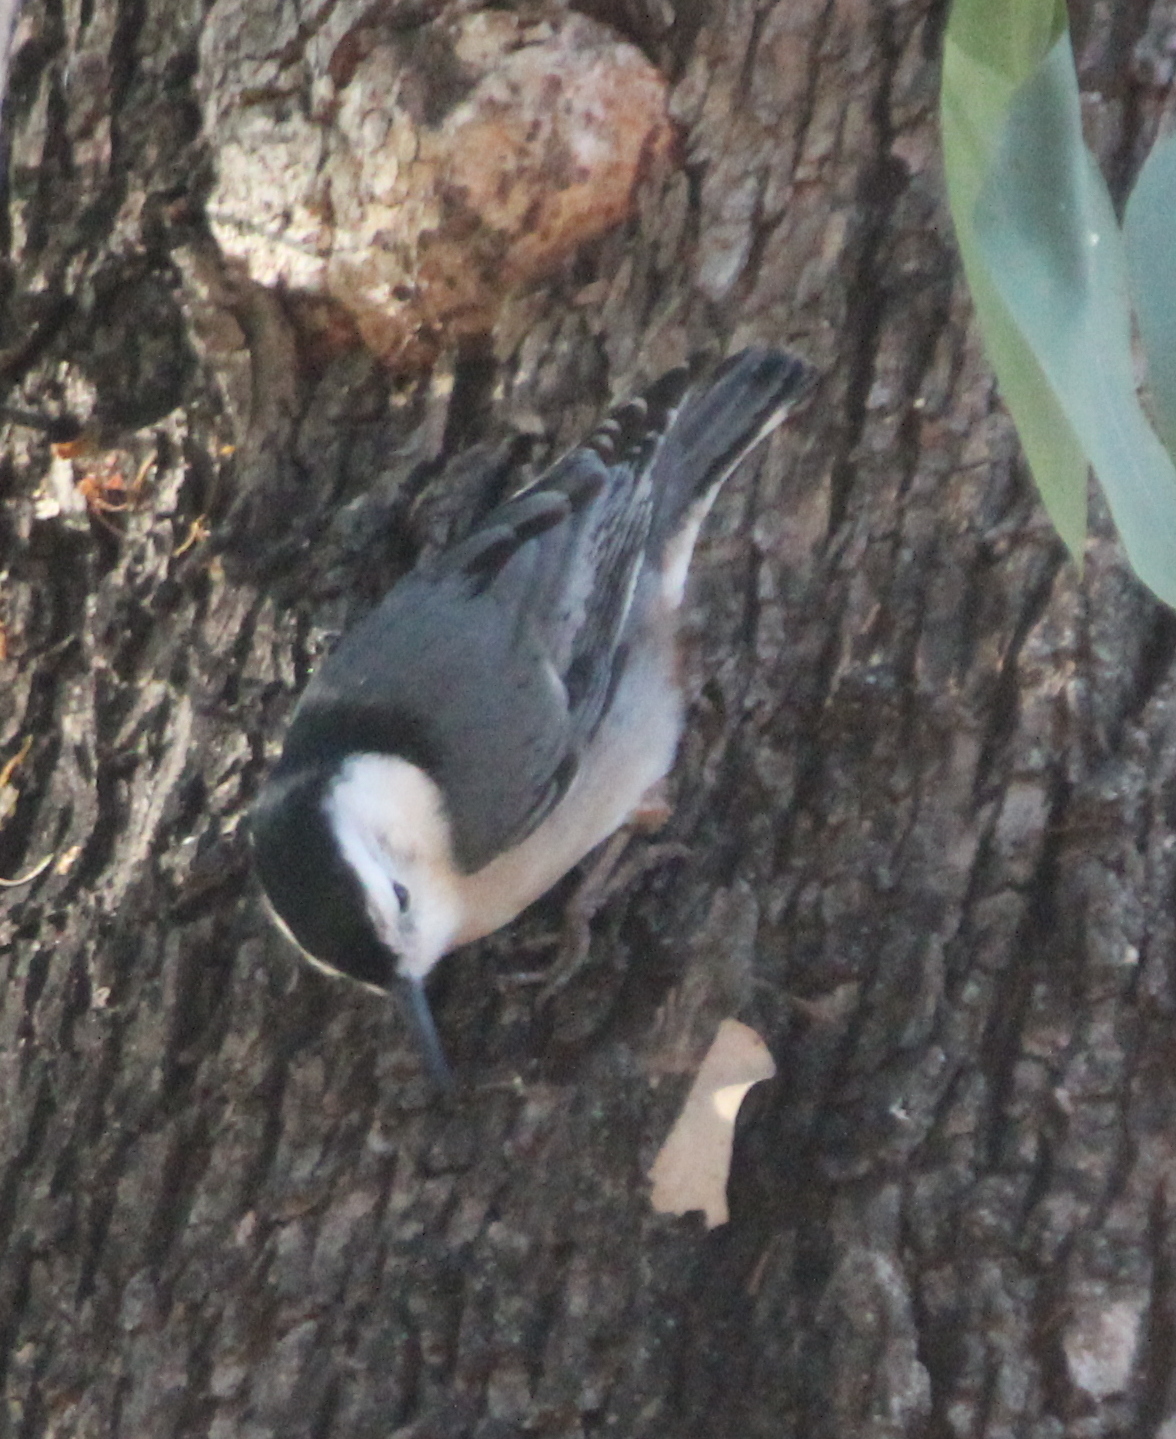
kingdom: Animalia
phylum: Chordata
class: Aves
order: Passeriformes
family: Sittidae
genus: Sitta
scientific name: Sitta carolinensis
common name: White-breasted nuthatch
